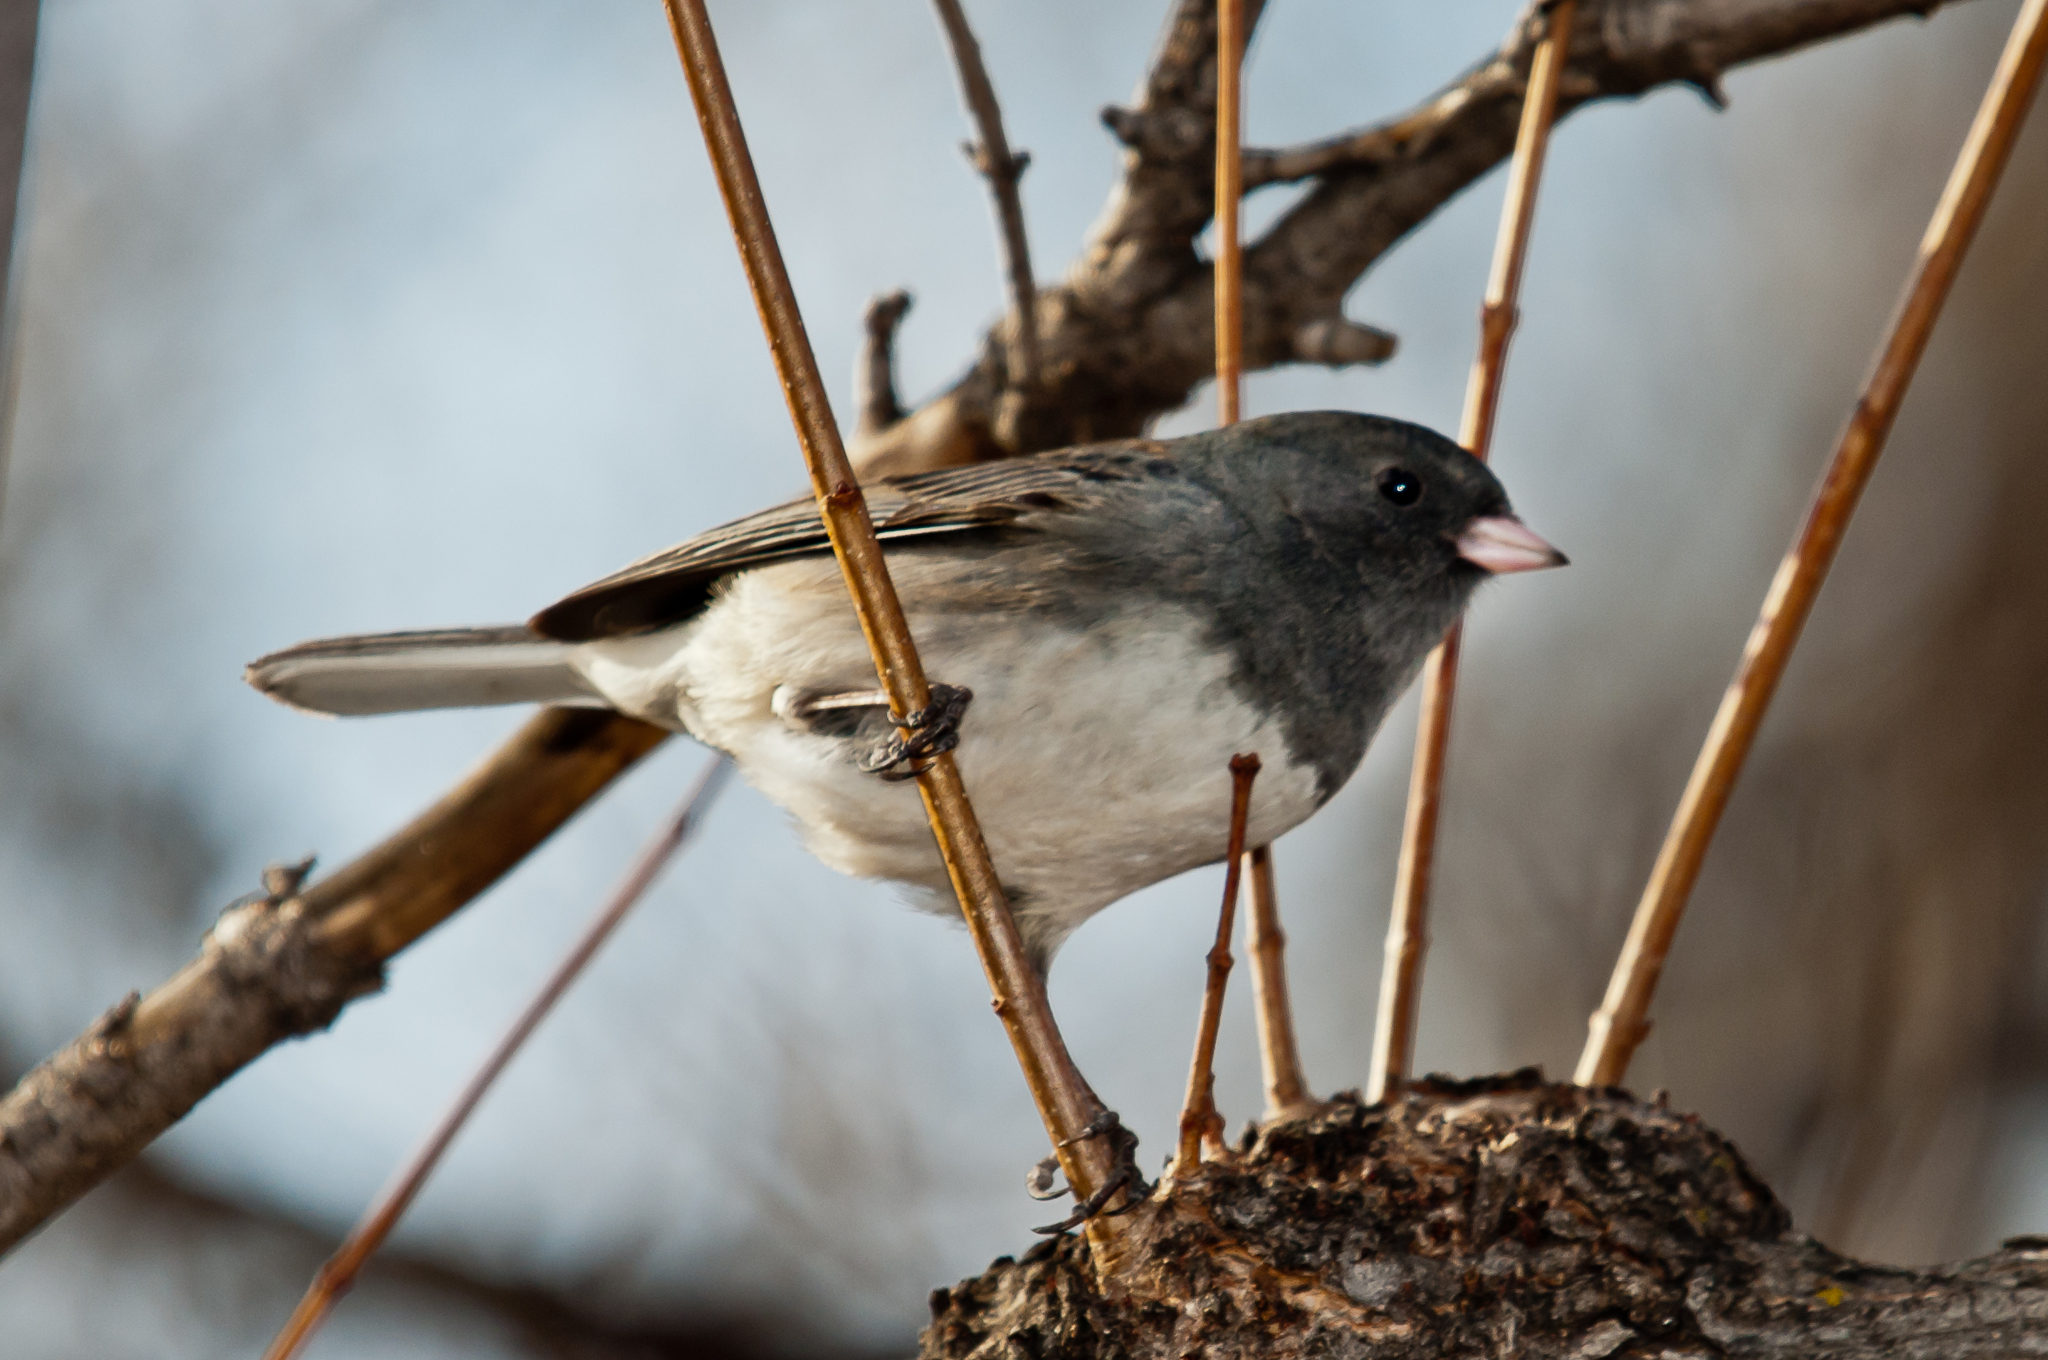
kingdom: Animalia
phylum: Chordata
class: Aves
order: Passeriformes
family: Passerellidae
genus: Junco
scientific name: Junco hyemalis
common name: Dark-eyed junco
